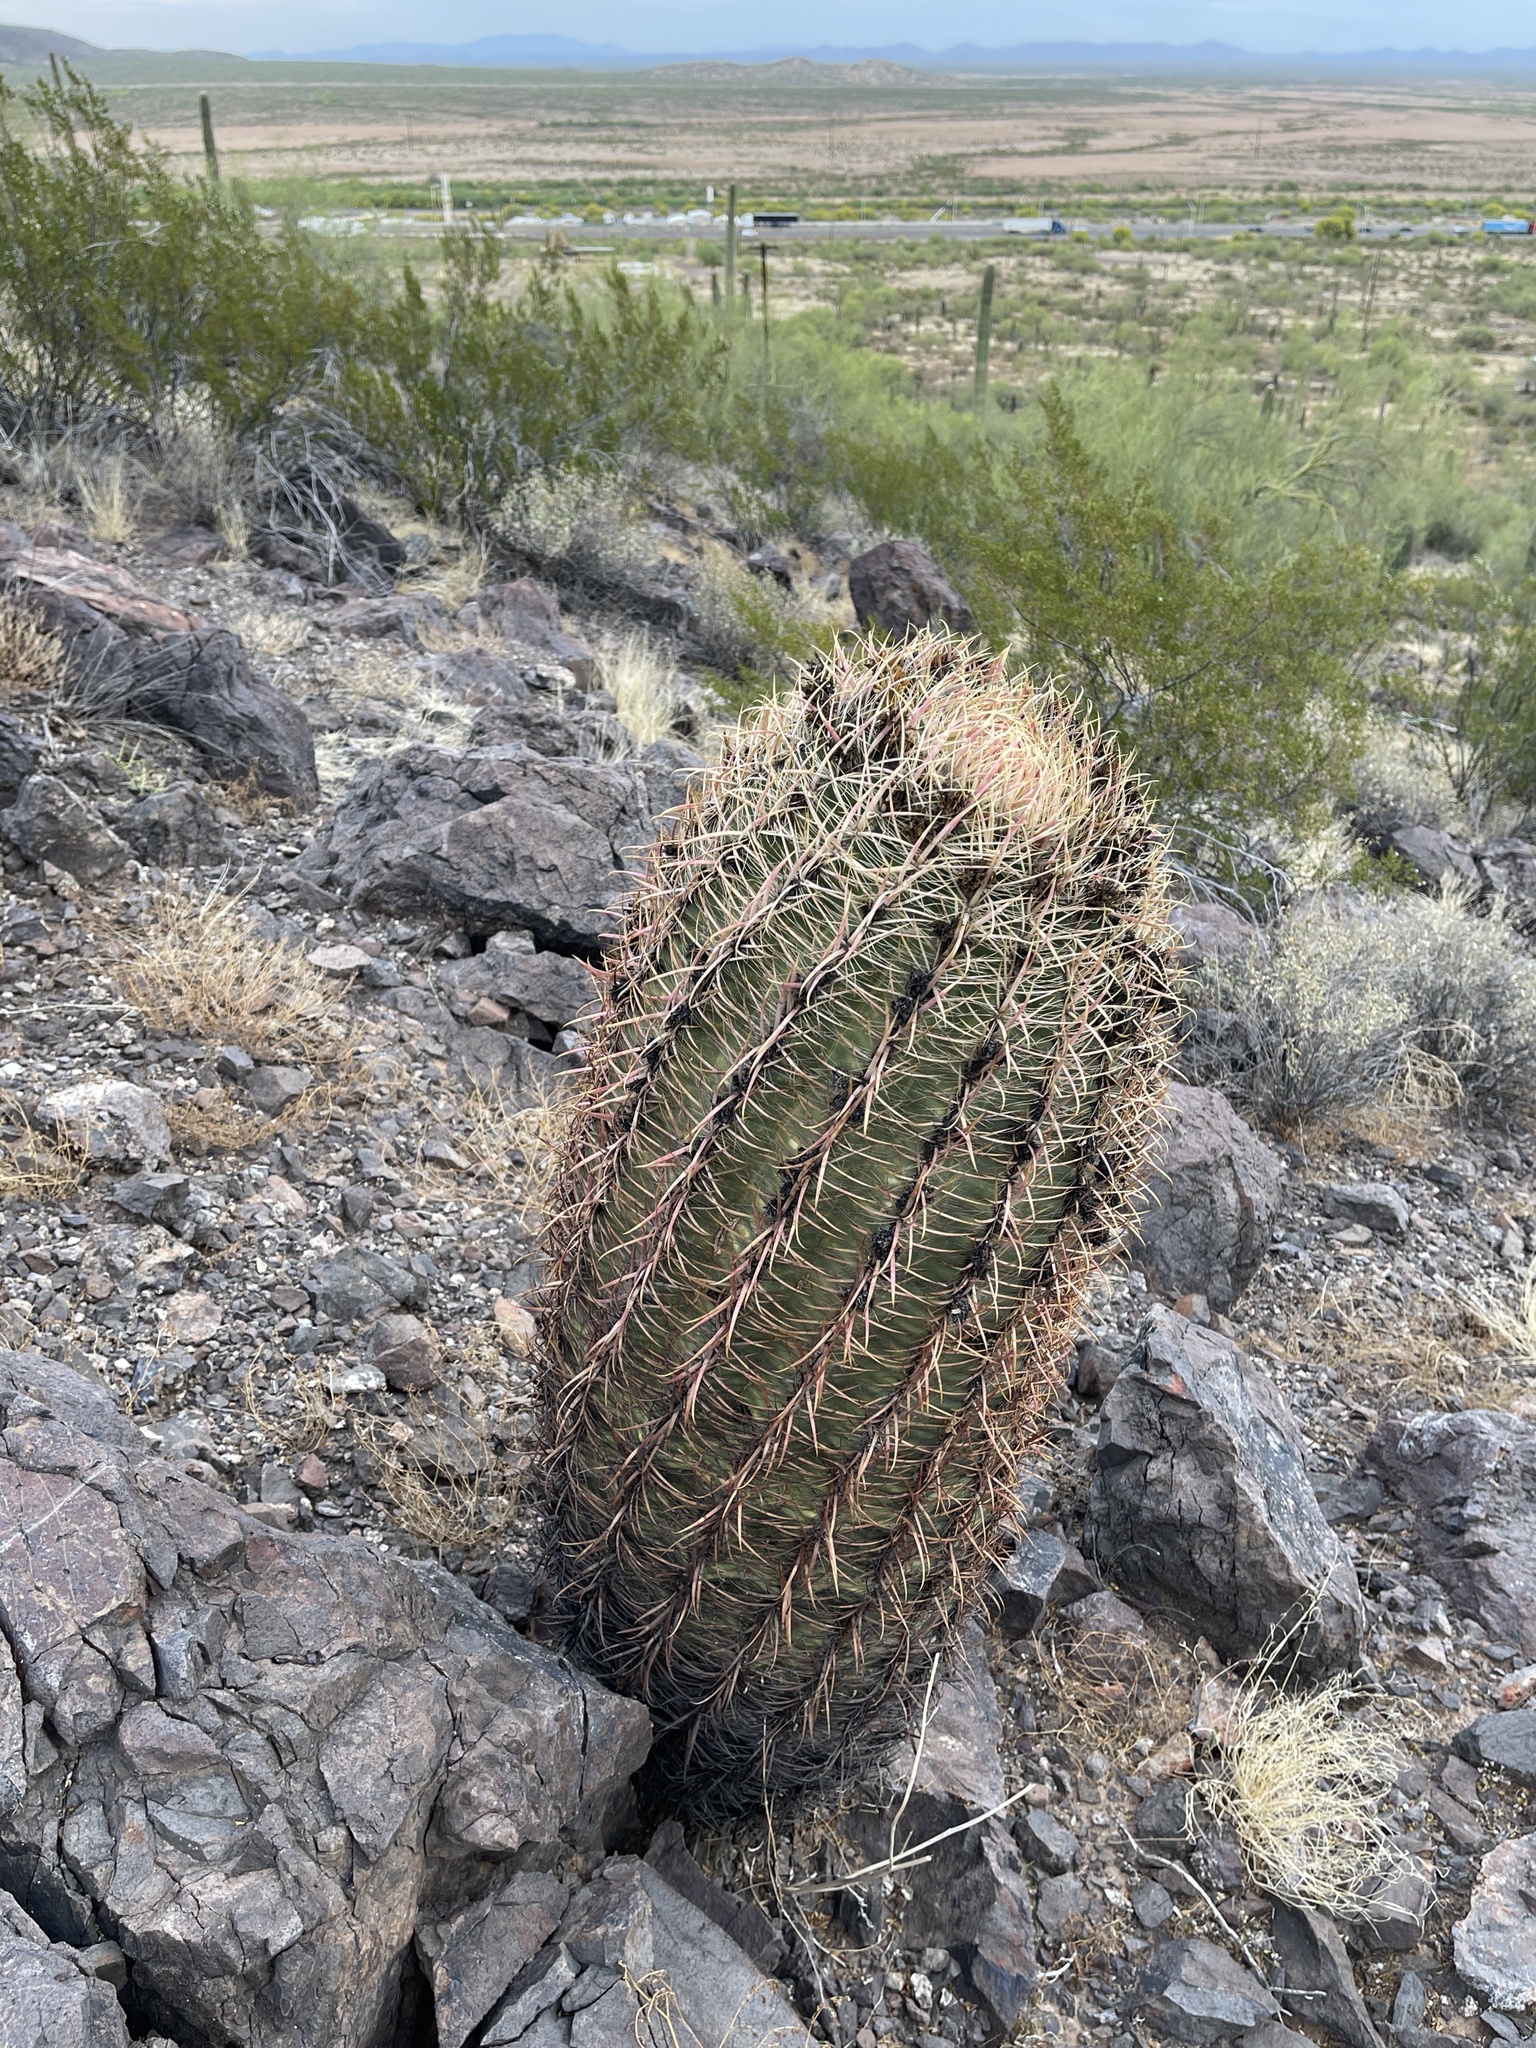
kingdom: Plantae
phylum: Tracheophyta
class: Magnoliopsida
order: Caryophyllales
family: Cactaceae
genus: Ferocactus
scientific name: Ferocactus cylindraceus
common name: California barrel cactus
